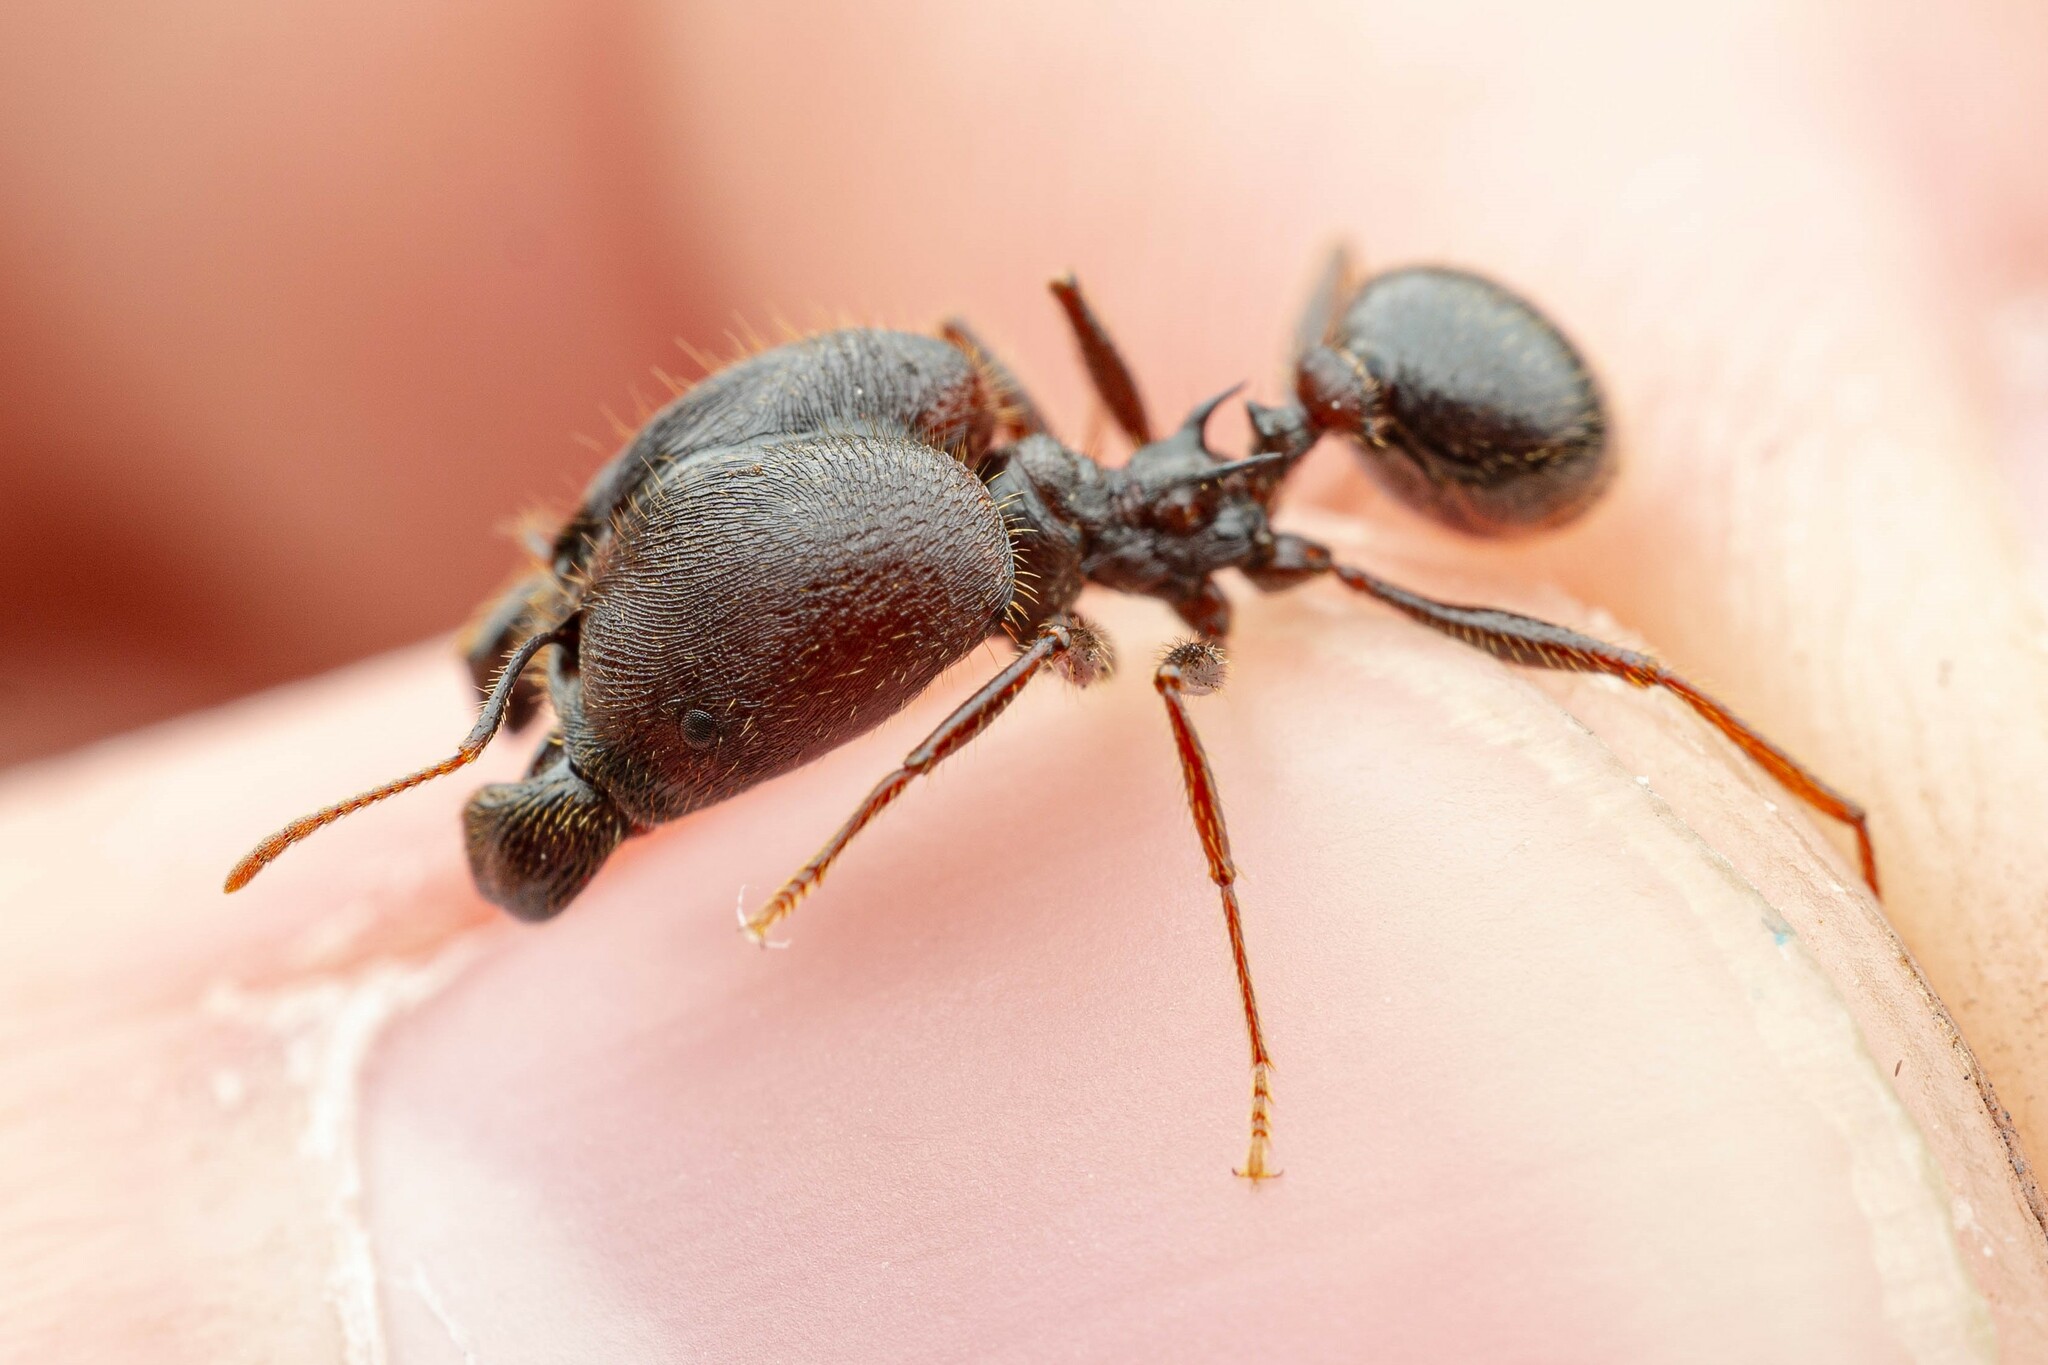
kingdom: Animalia
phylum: Arthropoda
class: Insecta
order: Hymenoptera
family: Formicidae
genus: Pheidole
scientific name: Pheidole rhea
